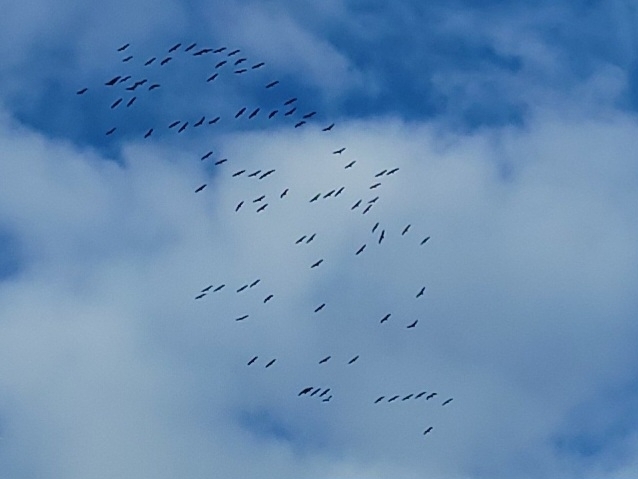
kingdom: Animalia
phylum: Chordata
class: Aves
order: Gruiformes
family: Gruidae
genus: Grus
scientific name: Grus grus
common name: Common crane
